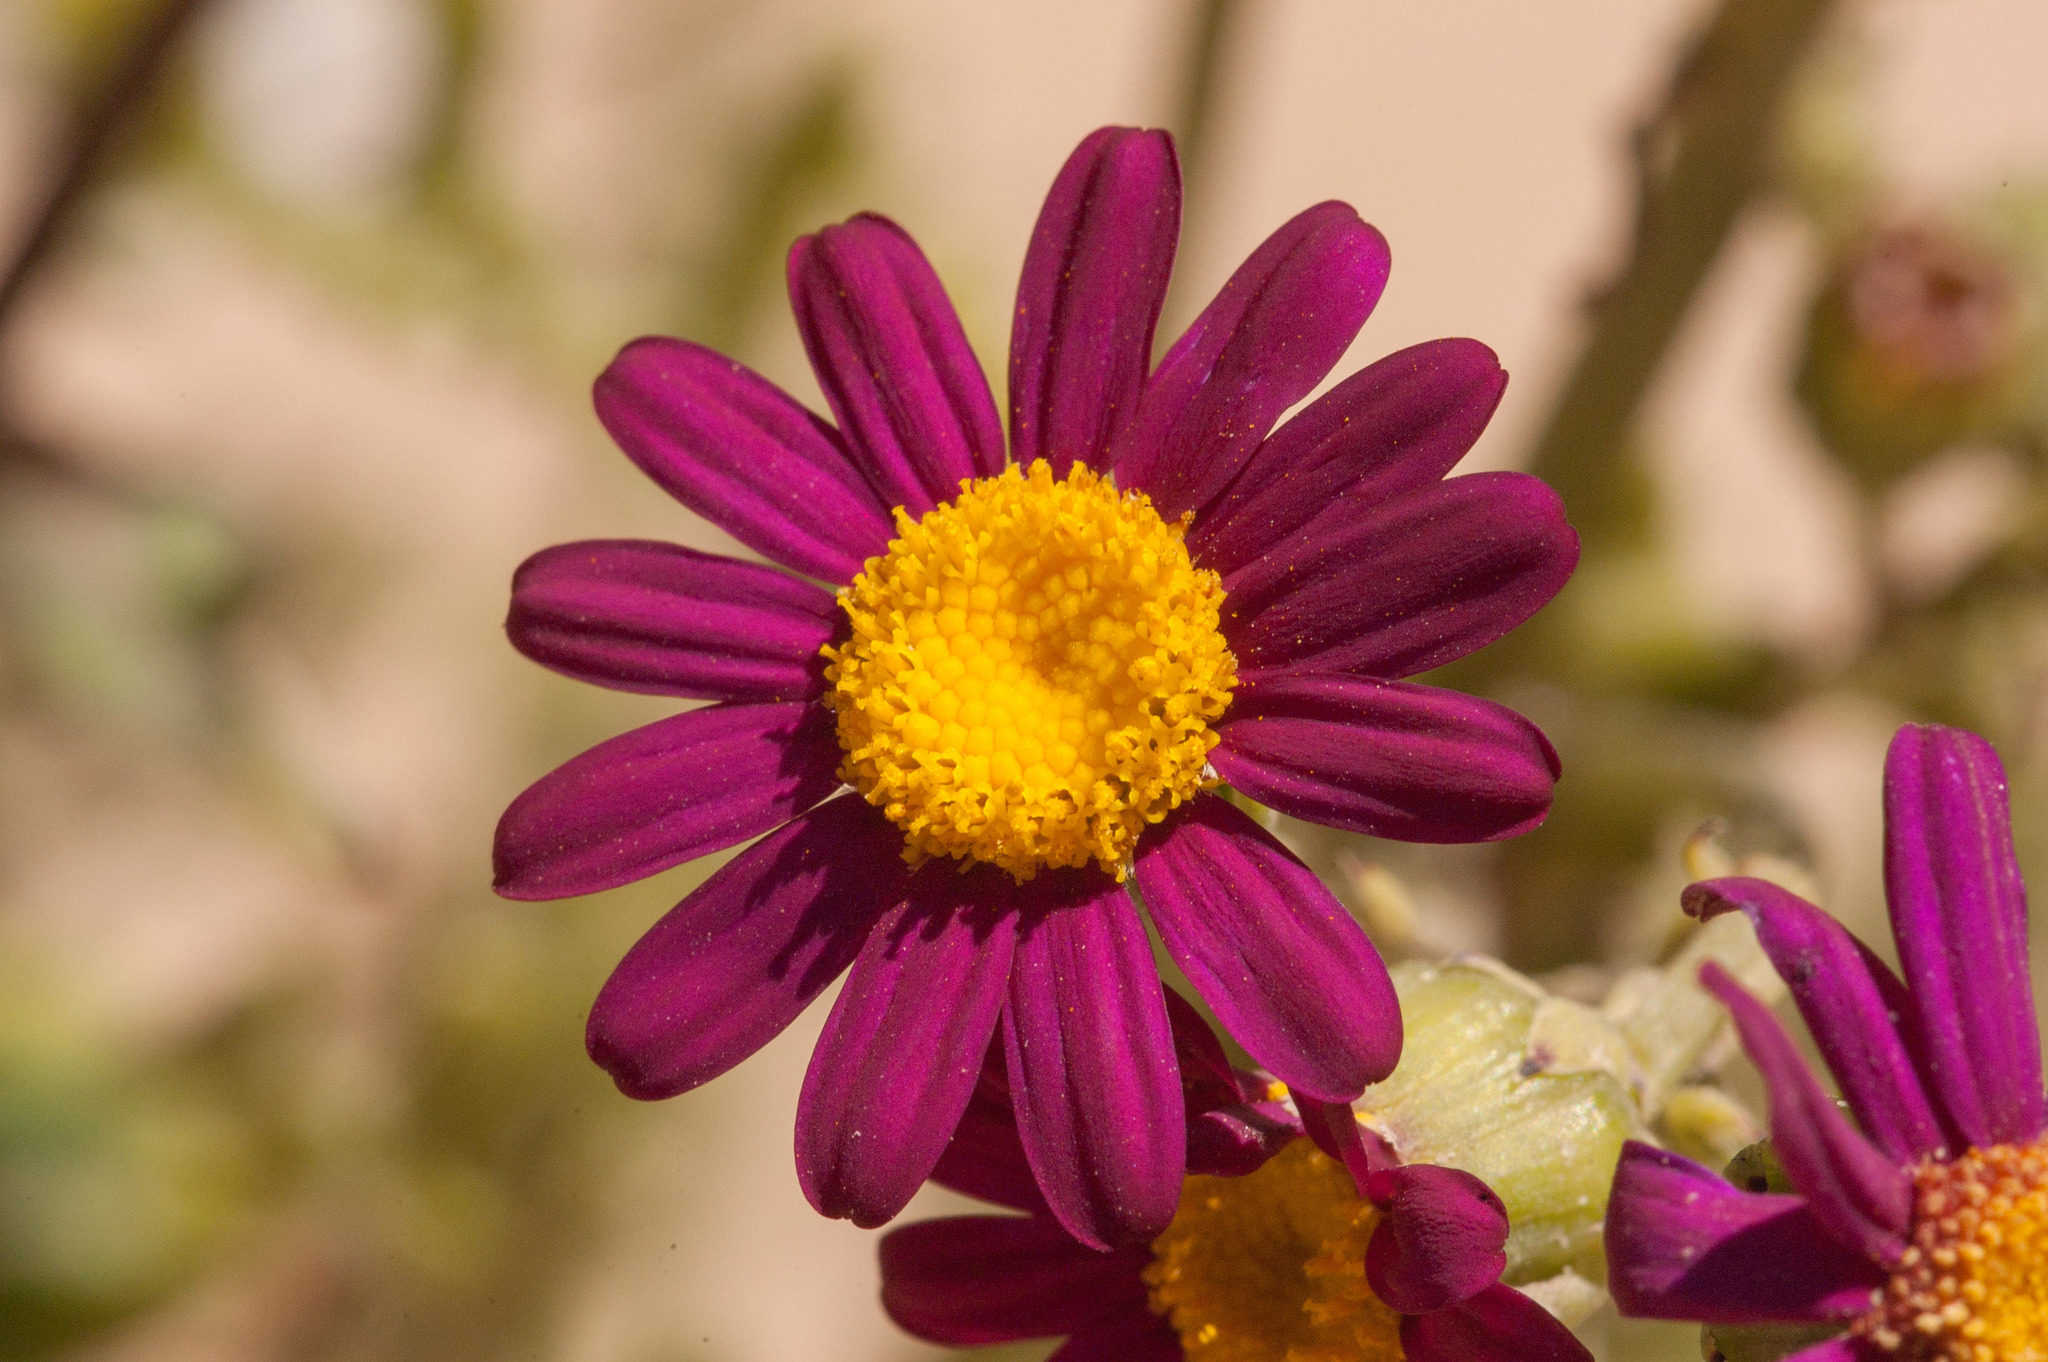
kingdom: Plantae
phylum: Tracheophyta
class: Magnoliopsida
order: Asterales
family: Asteraceae
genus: Senecio
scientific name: Senecio elegans
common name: Purple groundsel
